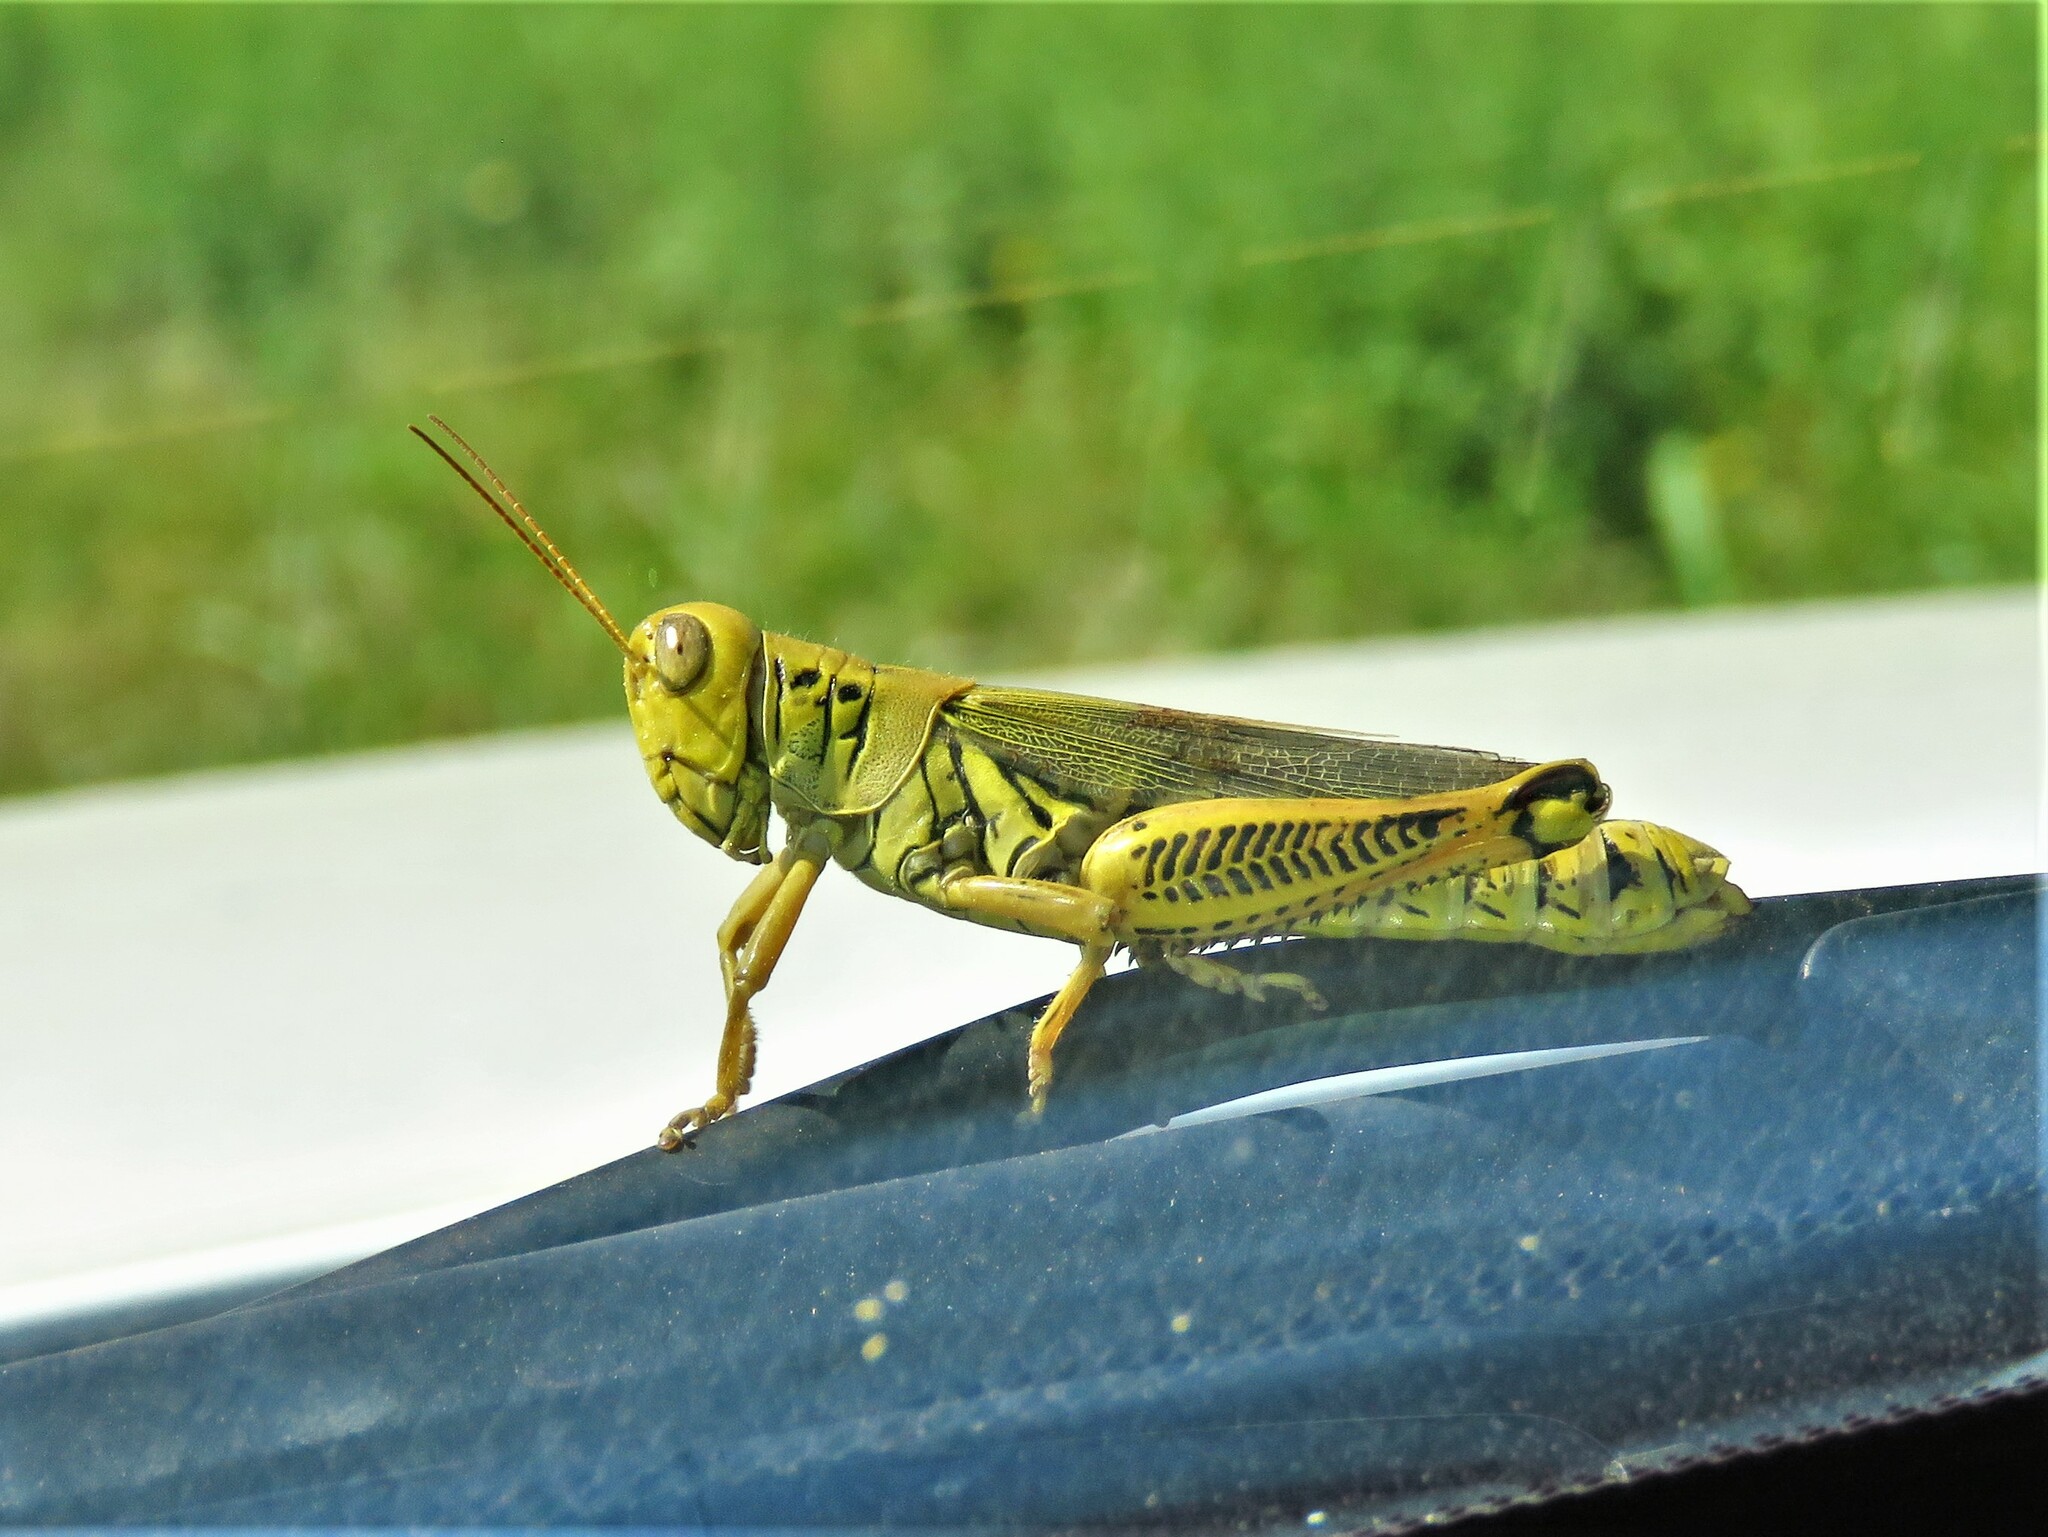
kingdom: Animalia
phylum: Arthropoda
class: Insecta
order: Orthoptera
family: Acrididae
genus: Melanoplus
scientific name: Melanoplus differentialis
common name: Differential grasshopper
